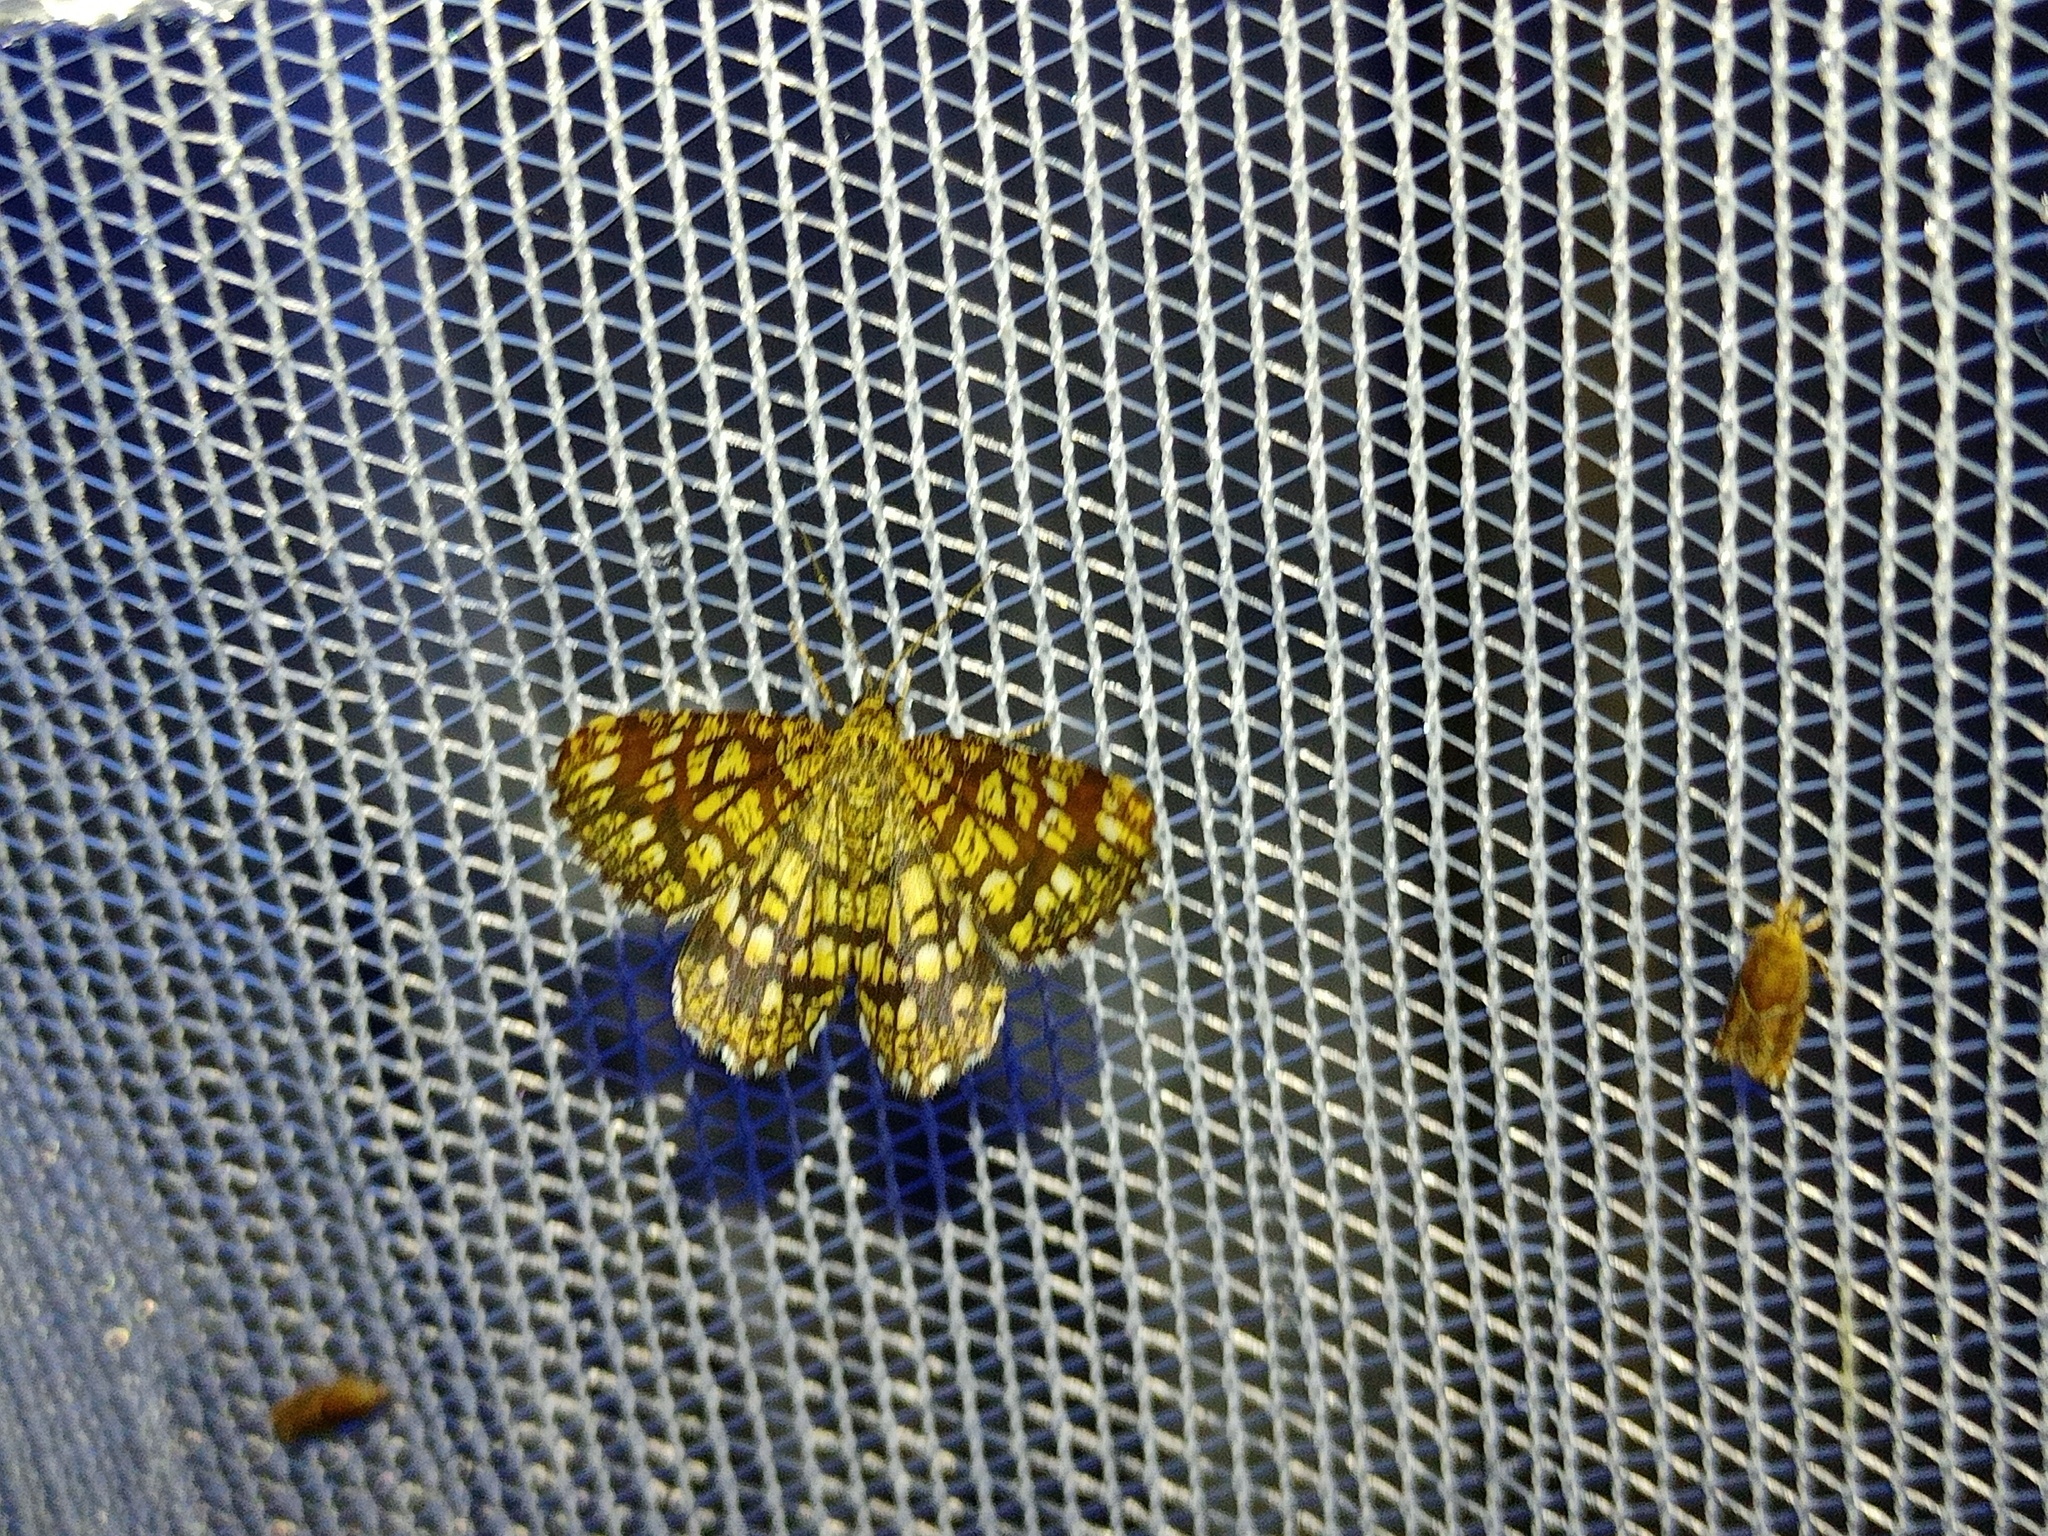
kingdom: Animalia
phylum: Arthropoda
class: Insecta
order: Lepidoptera
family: Geometridae
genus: Chiasmia
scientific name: Chiasmia clathrata
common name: Latticed heath
